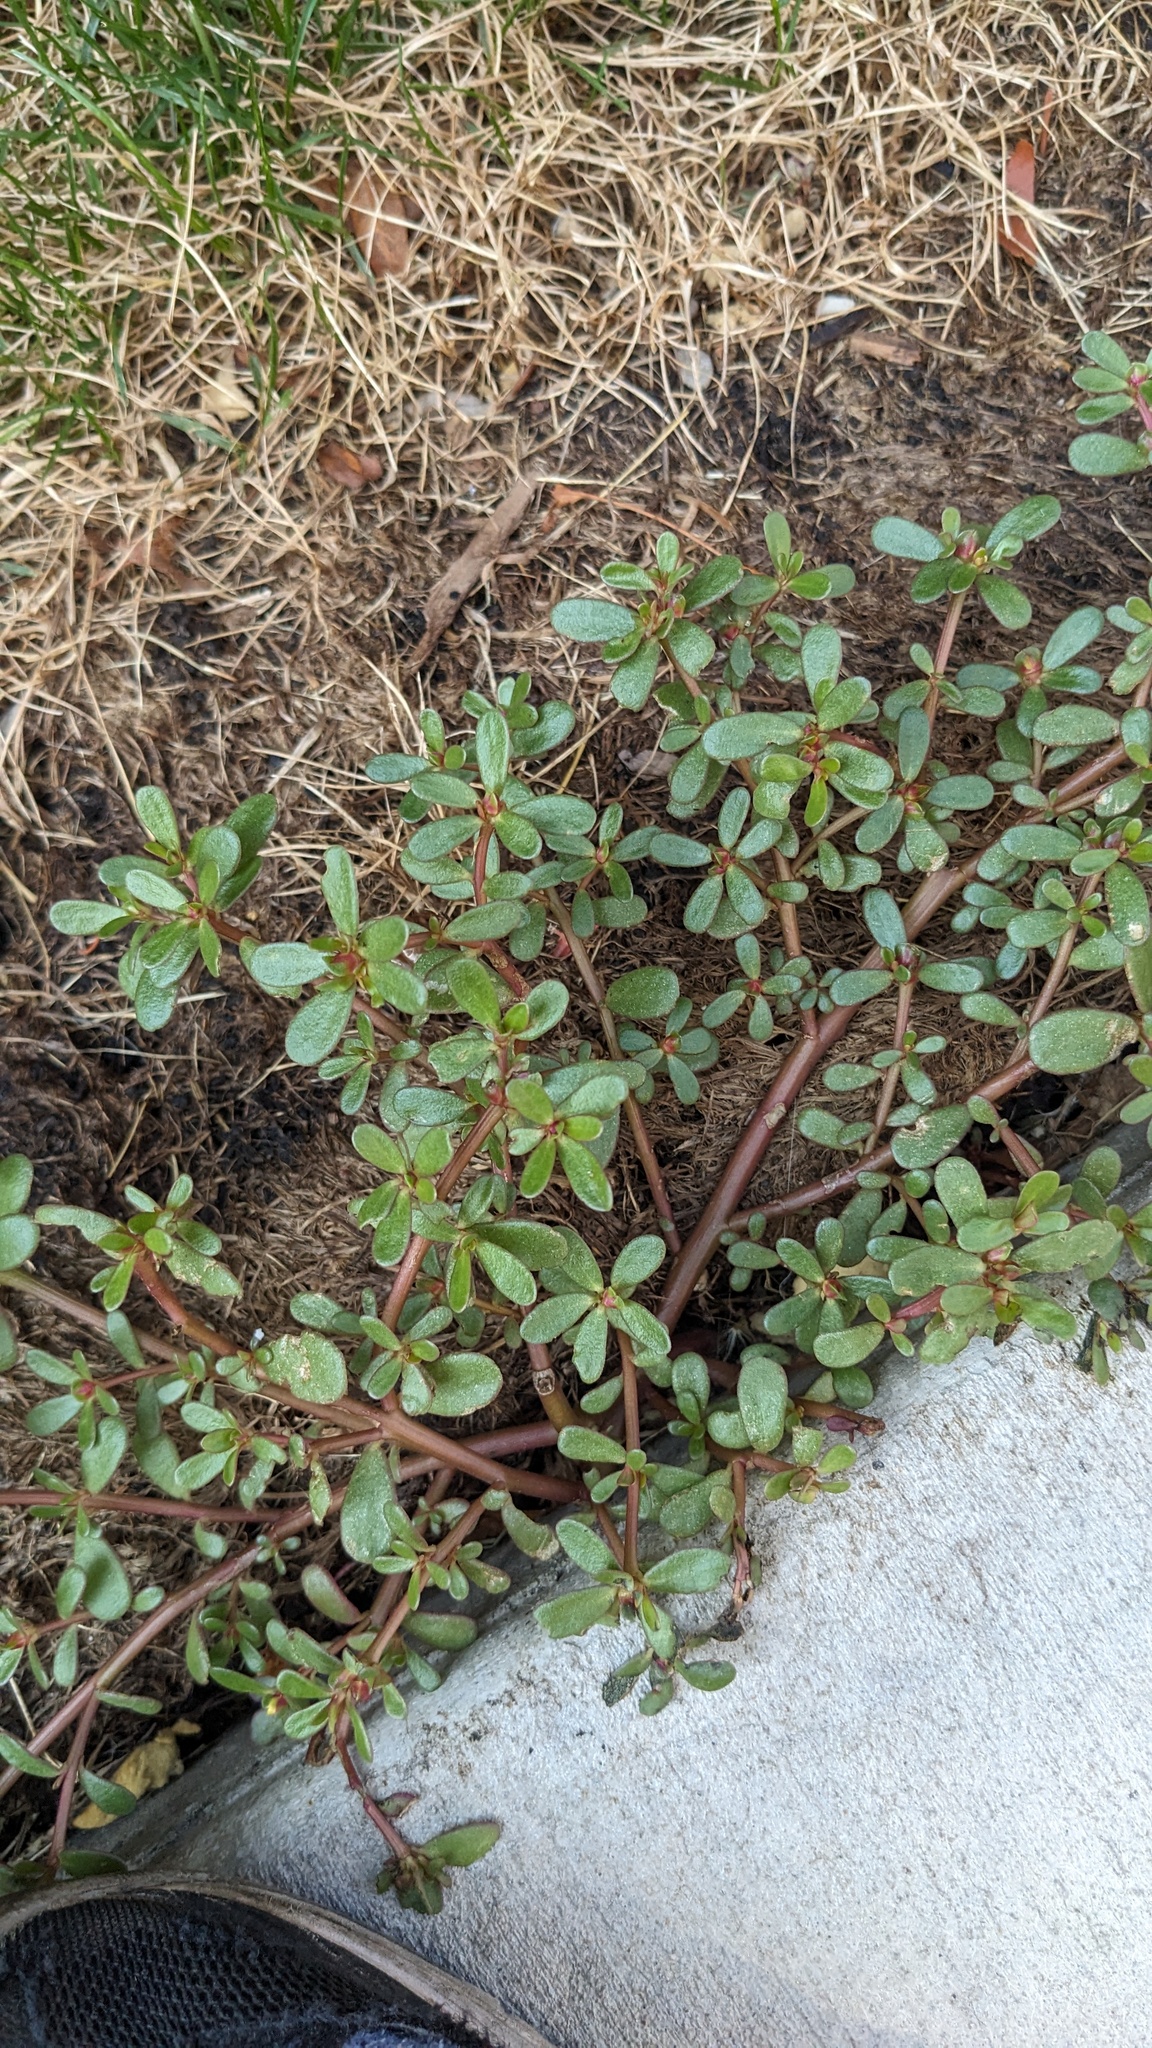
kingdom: Plantae
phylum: Tracheophyta
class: Magnoliopsida
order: Caryophyllales
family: Portulacaceae
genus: Portulaca
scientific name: Portulaca oleracea
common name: Common purslane
